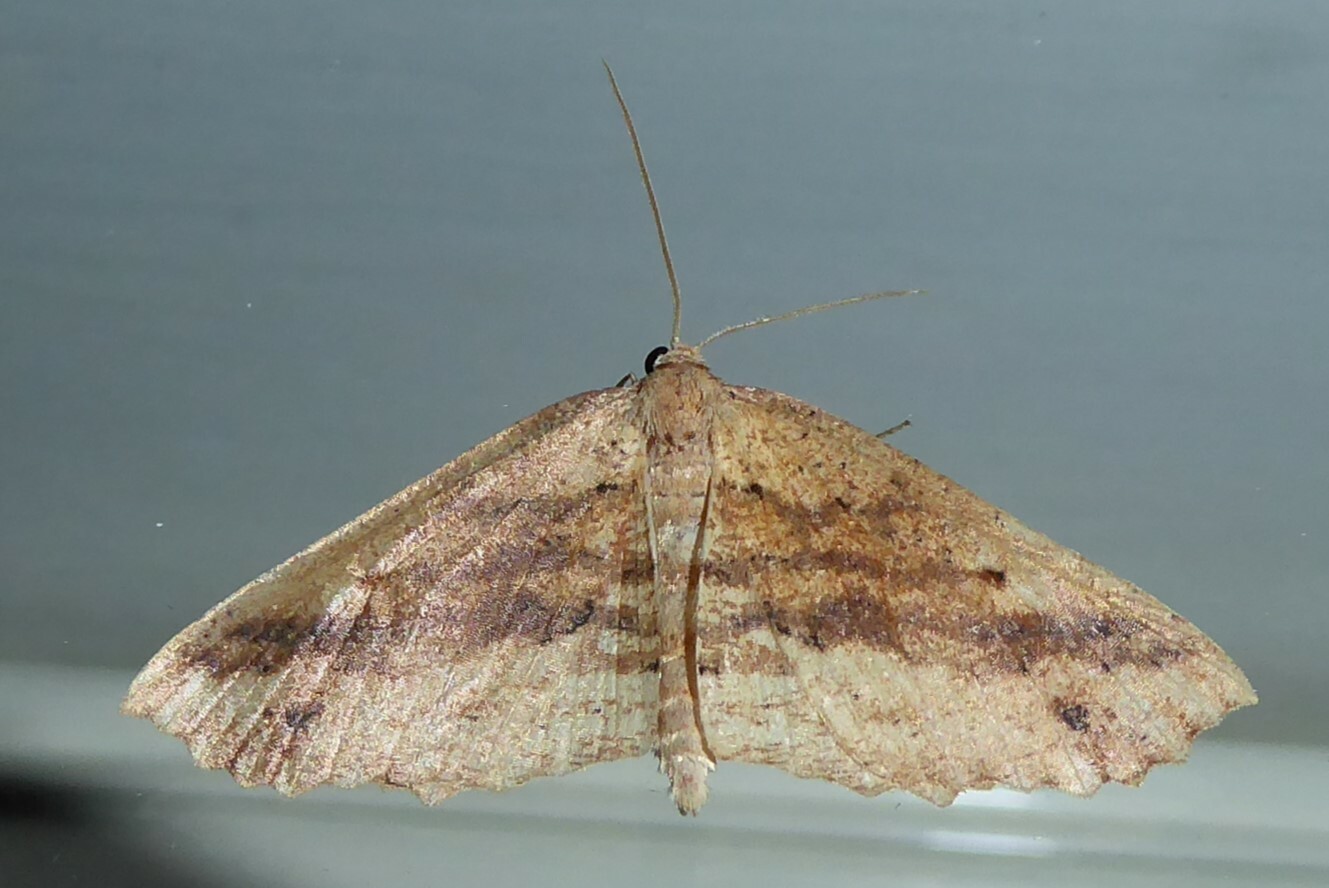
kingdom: Animalia
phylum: Arthropoda
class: Insecta
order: Lepidoptera
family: Geometridae
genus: Xyridacma
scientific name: Xyridacma veronicae
